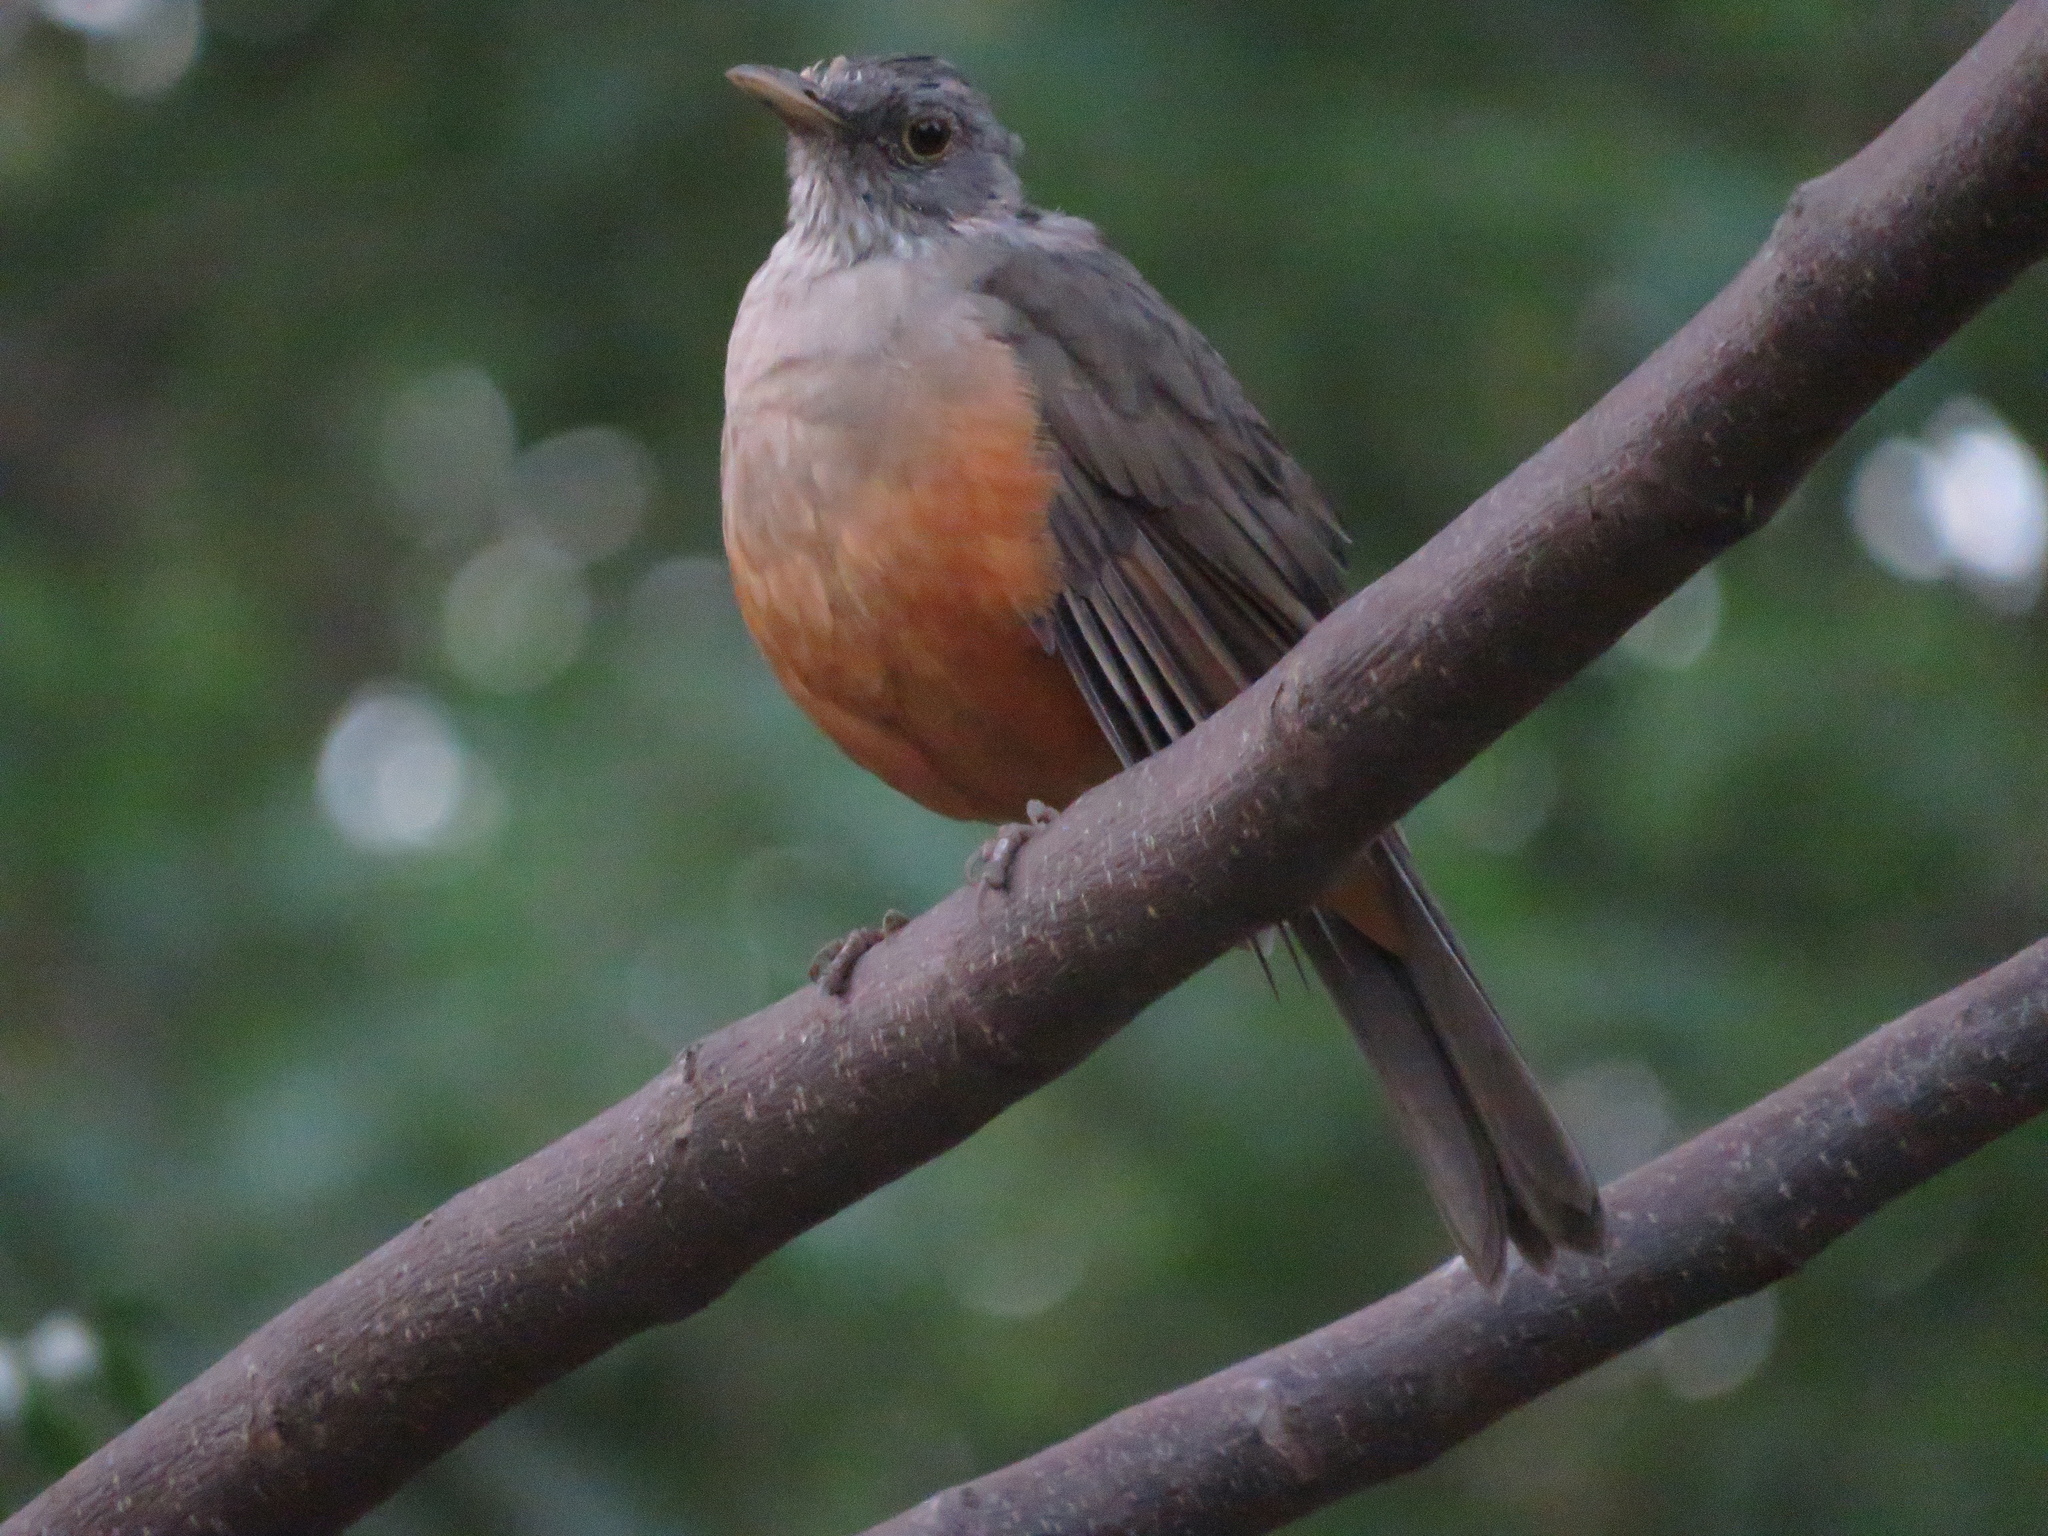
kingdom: Animalia
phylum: Chordata
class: Aves
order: Passeriformes
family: Turdidae
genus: Turdus
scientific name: Turdus rufiventris
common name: Rufous-bellied thrush
